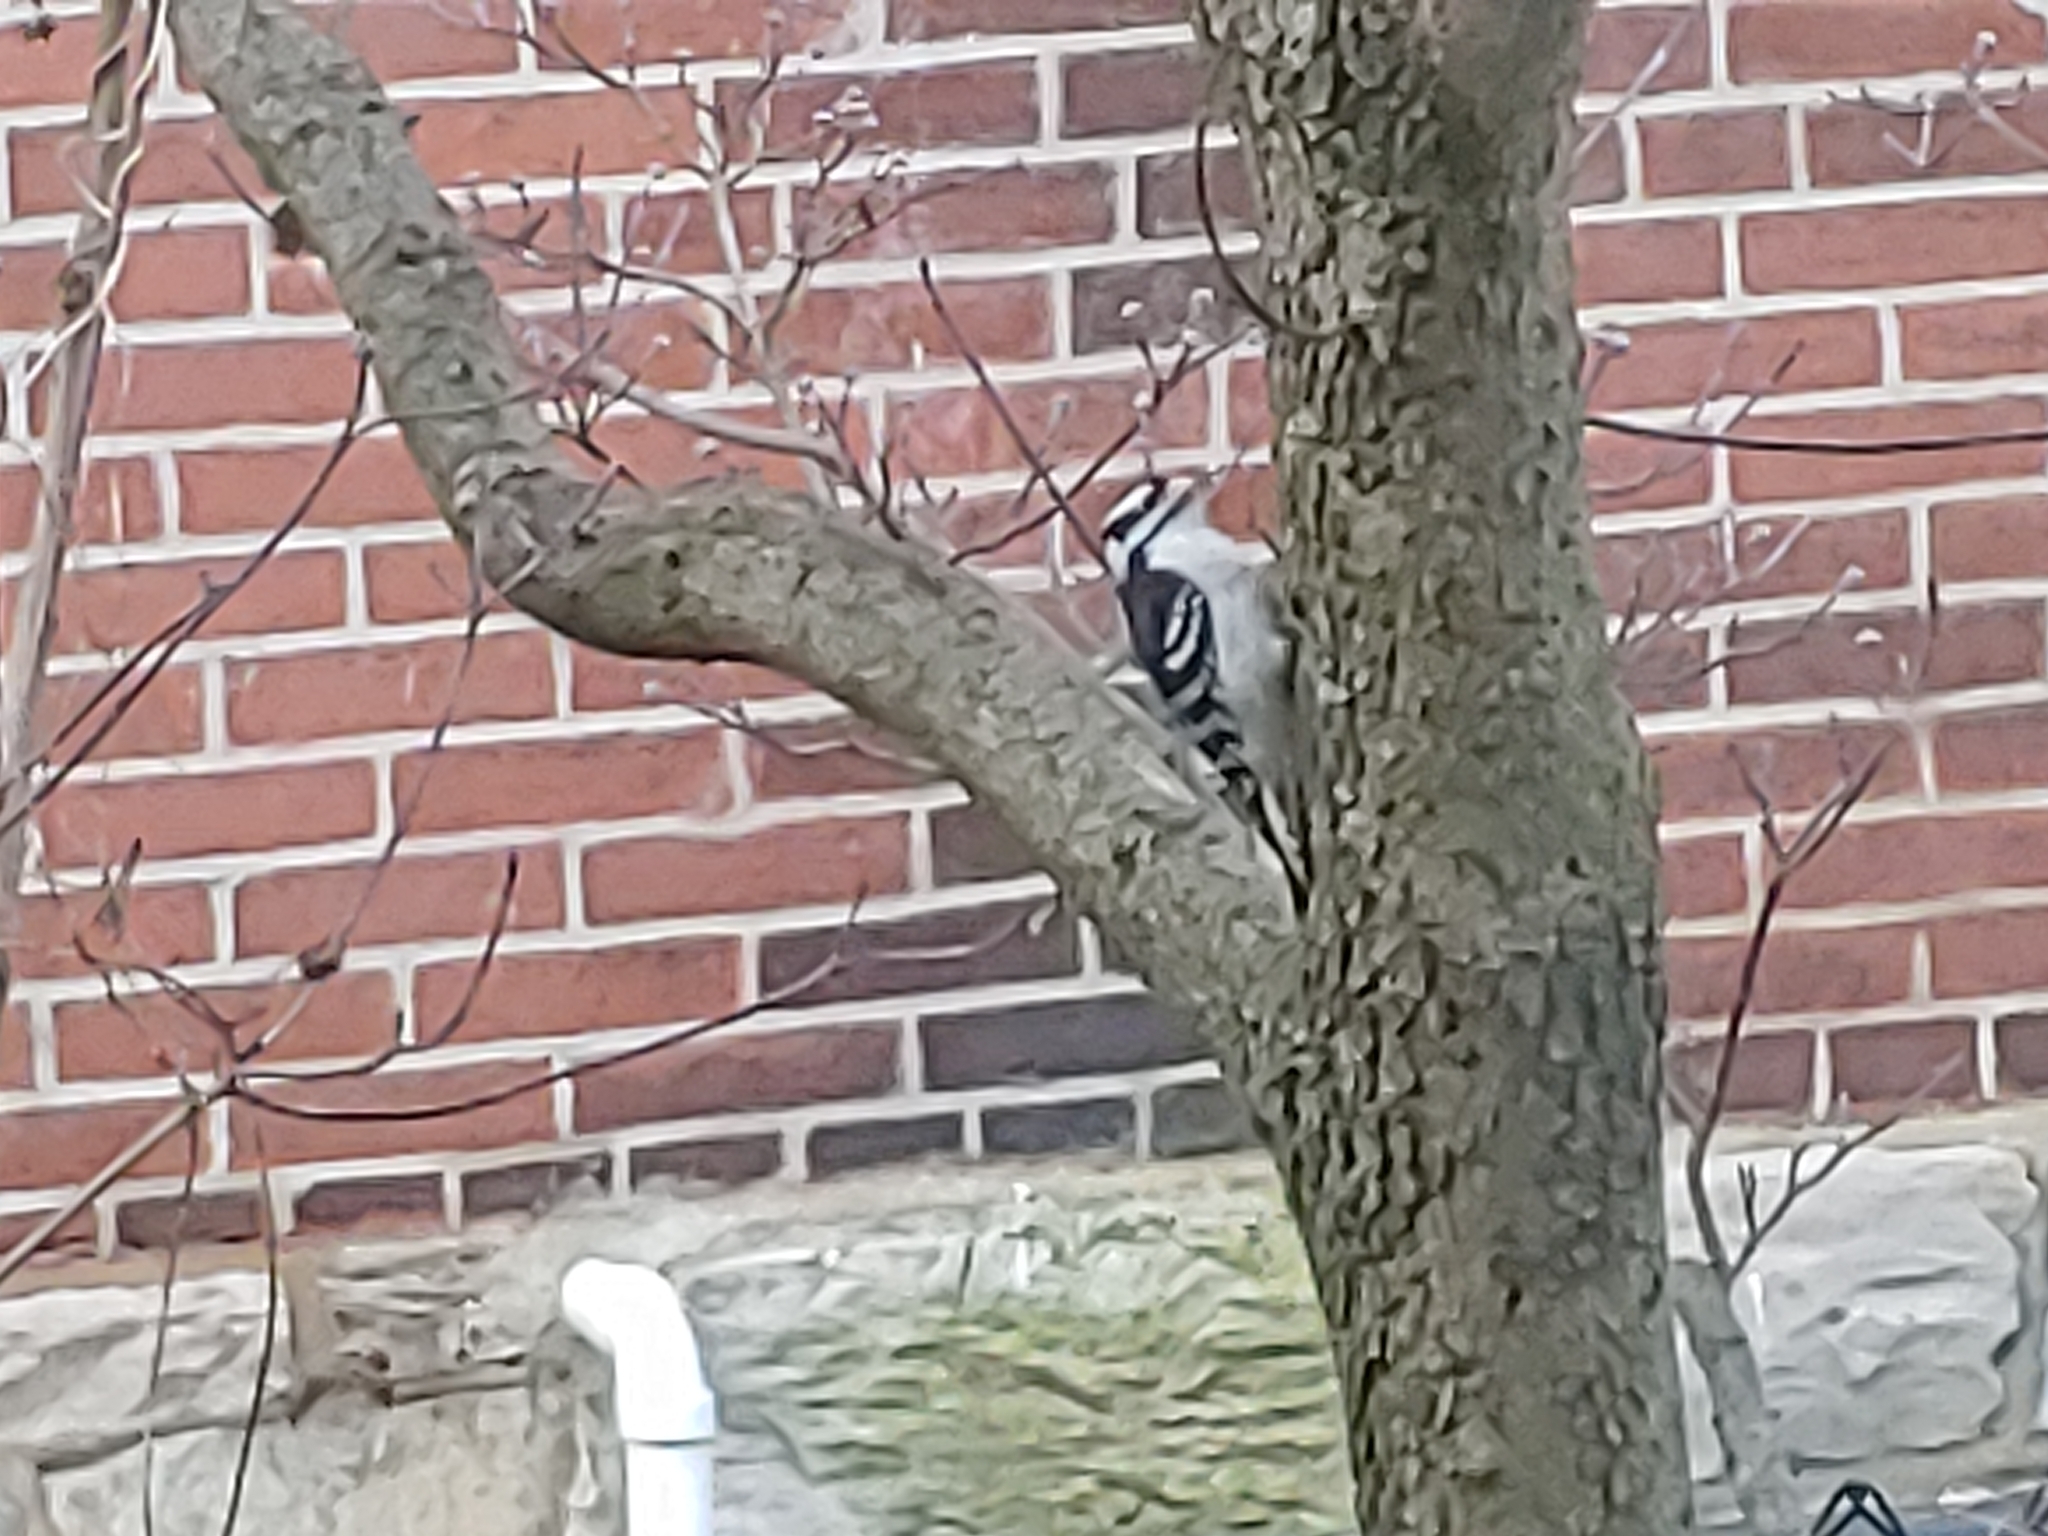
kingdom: Animalia
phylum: Chordata
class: Aves
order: Piciformes
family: Picidae
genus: Dryobates
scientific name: Dryobates pubescens
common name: Downy woodpecker
